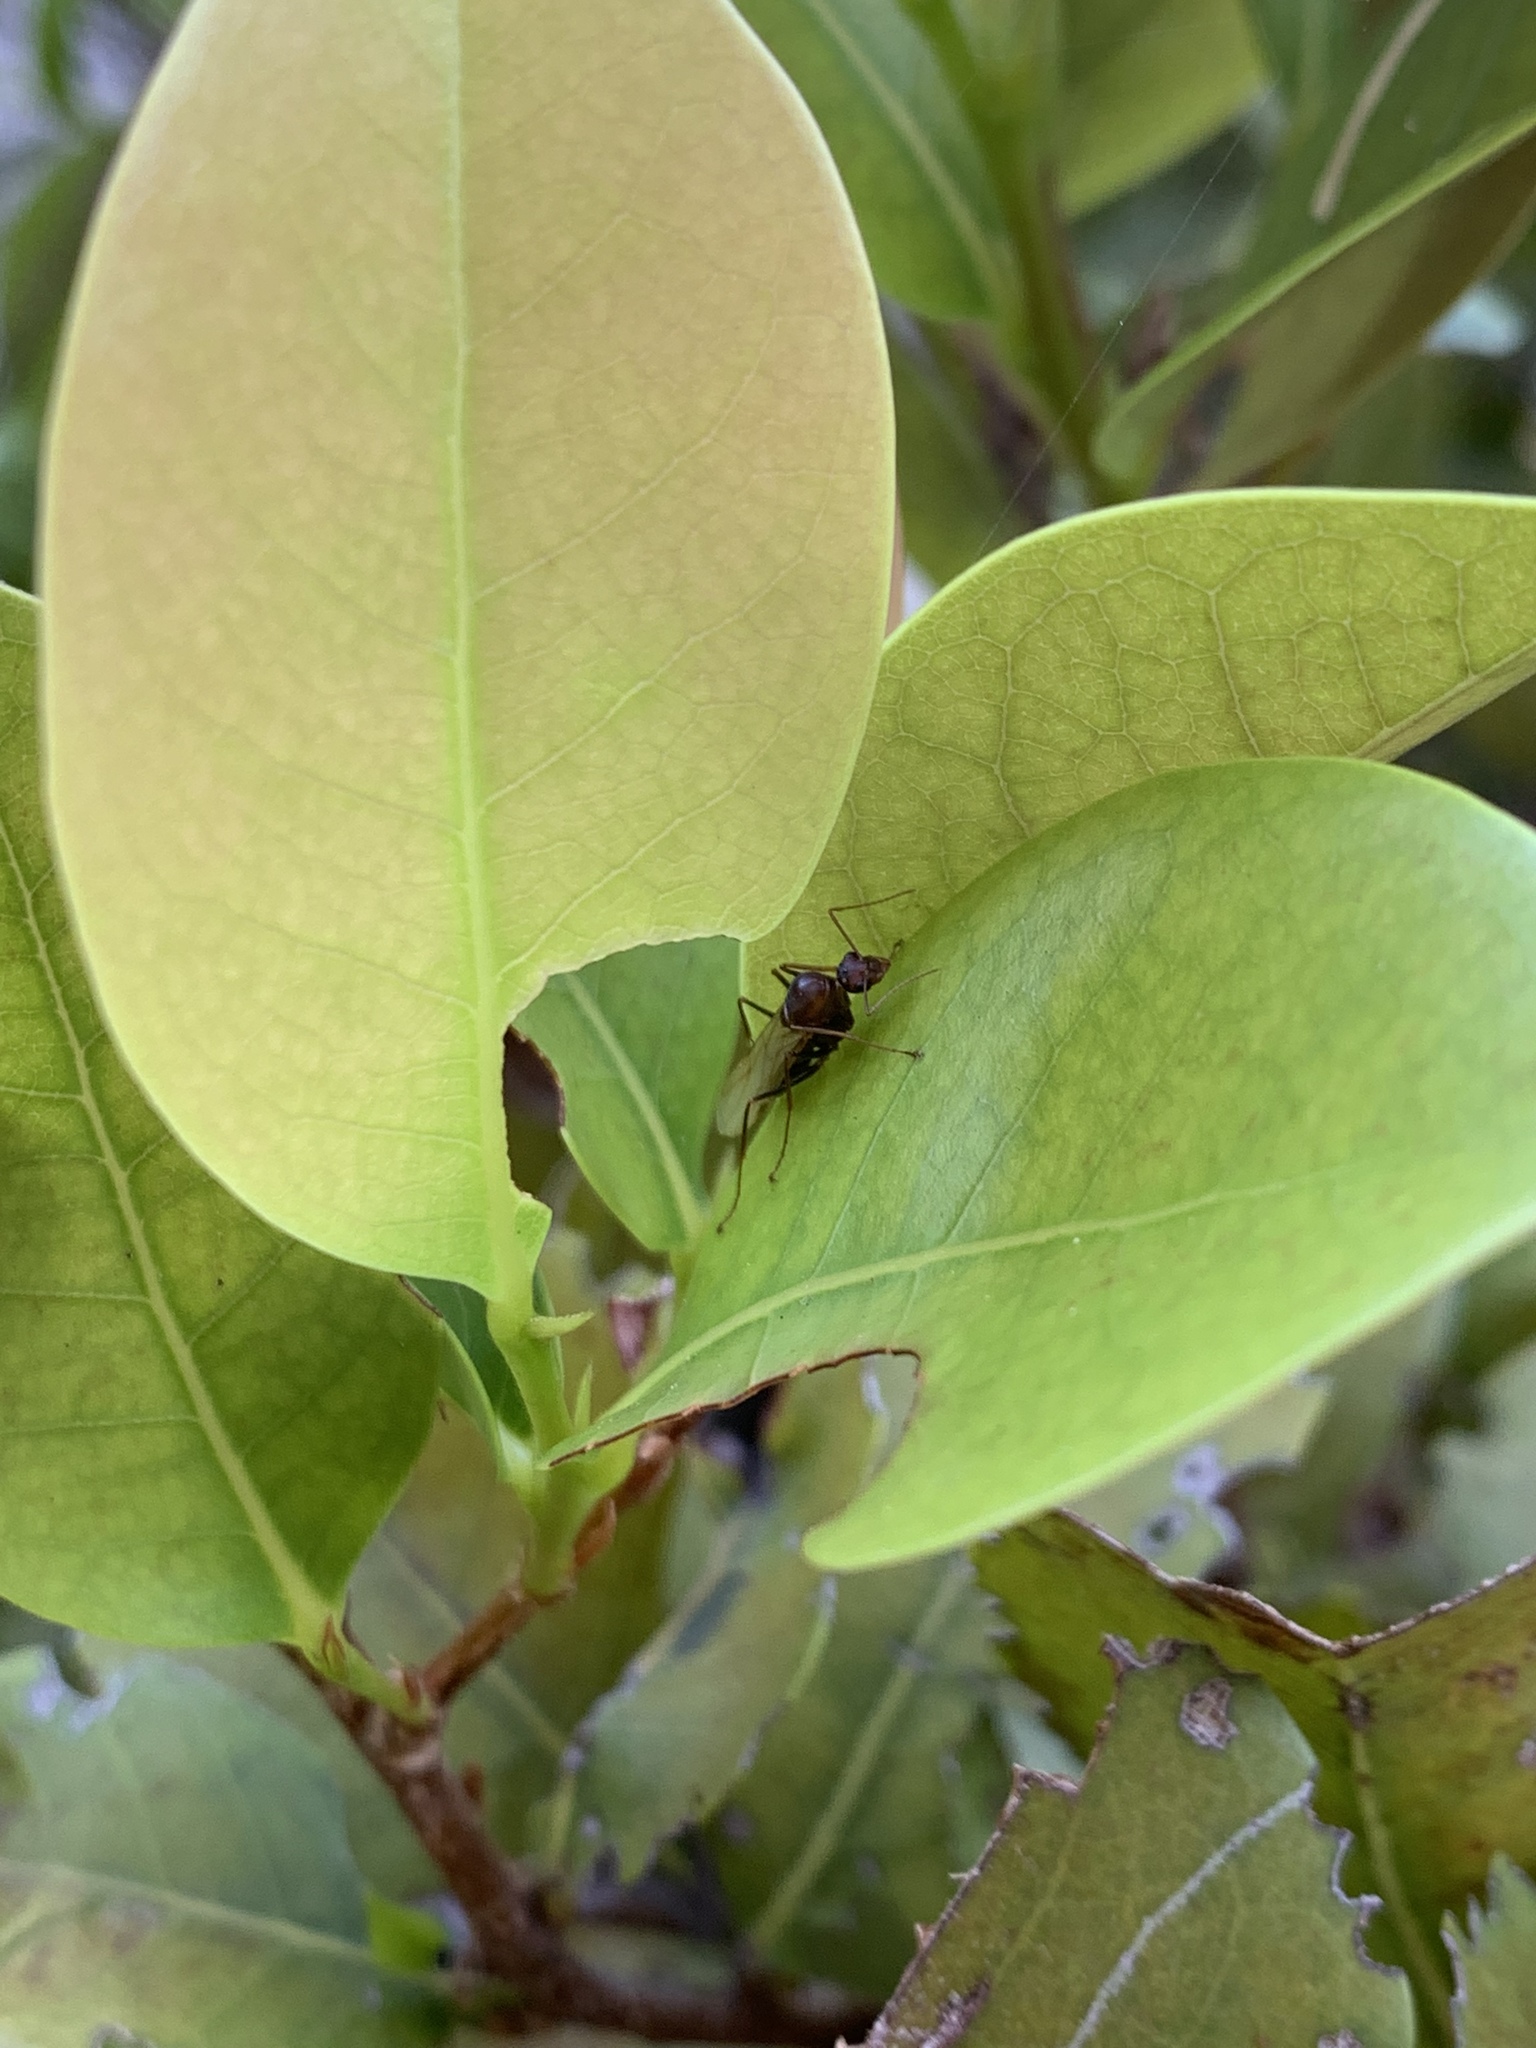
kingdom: Animalia
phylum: Arthropoda
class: Insecta
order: Hymenoptera
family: Formicidae
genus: Camponotus
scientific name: Camponotus floridanus
